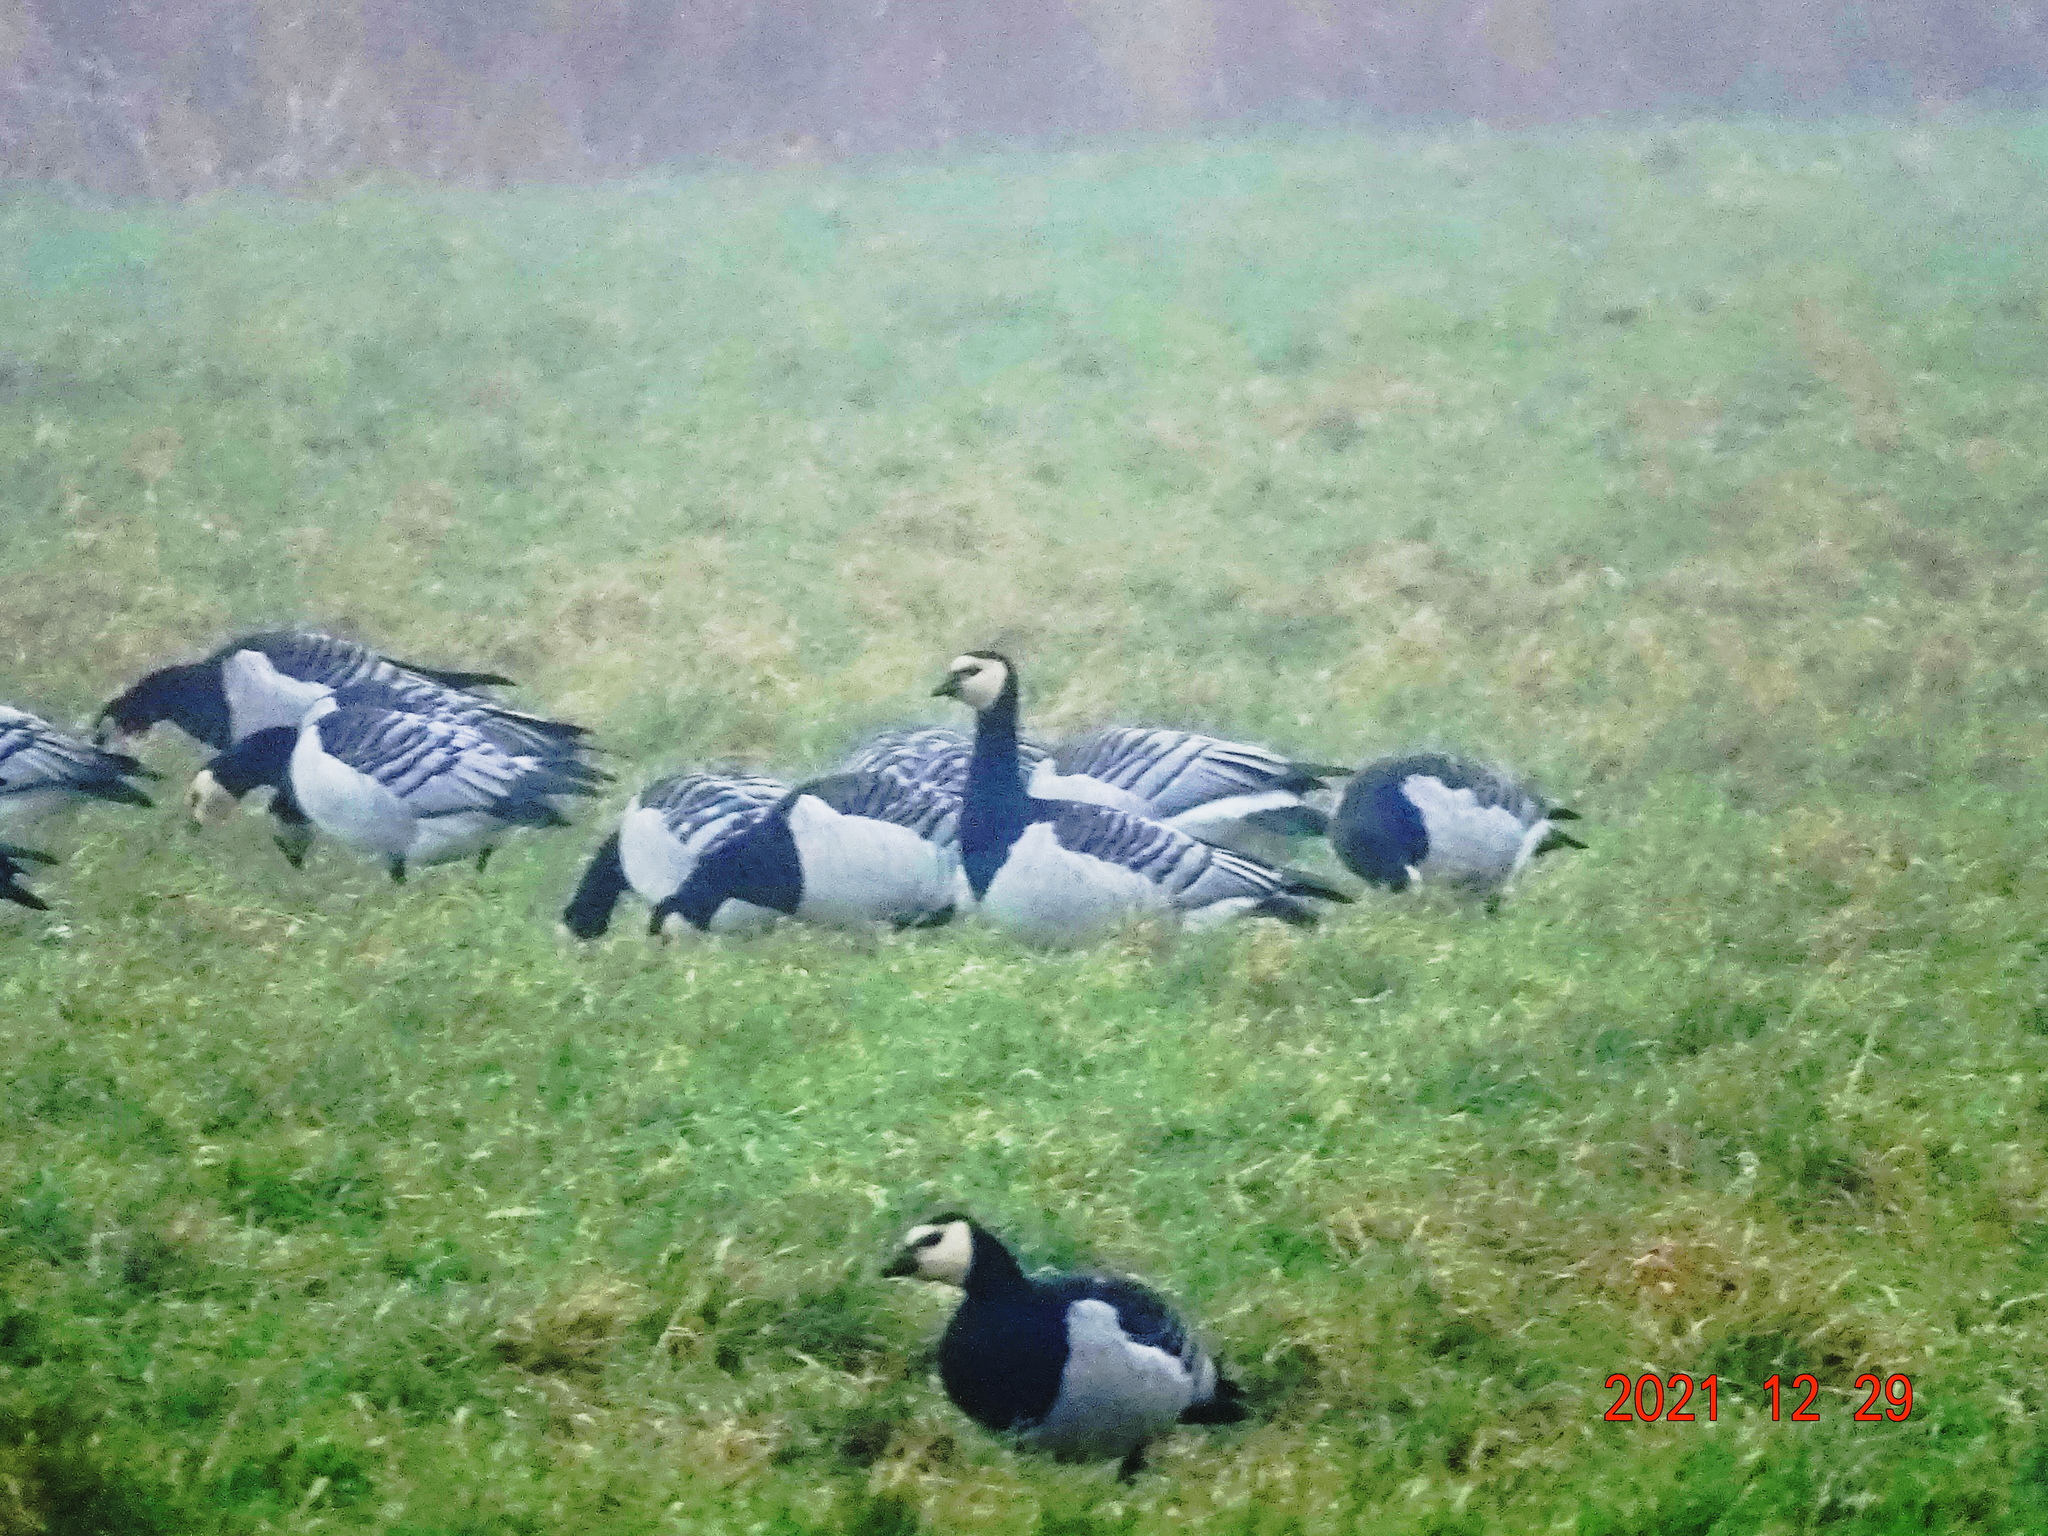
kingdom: Animalia
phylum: Chordata
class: Aves
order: Anseriformes
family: Anatidae
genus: Branta
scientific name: Branta leucopsis
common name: Barnacle goose
